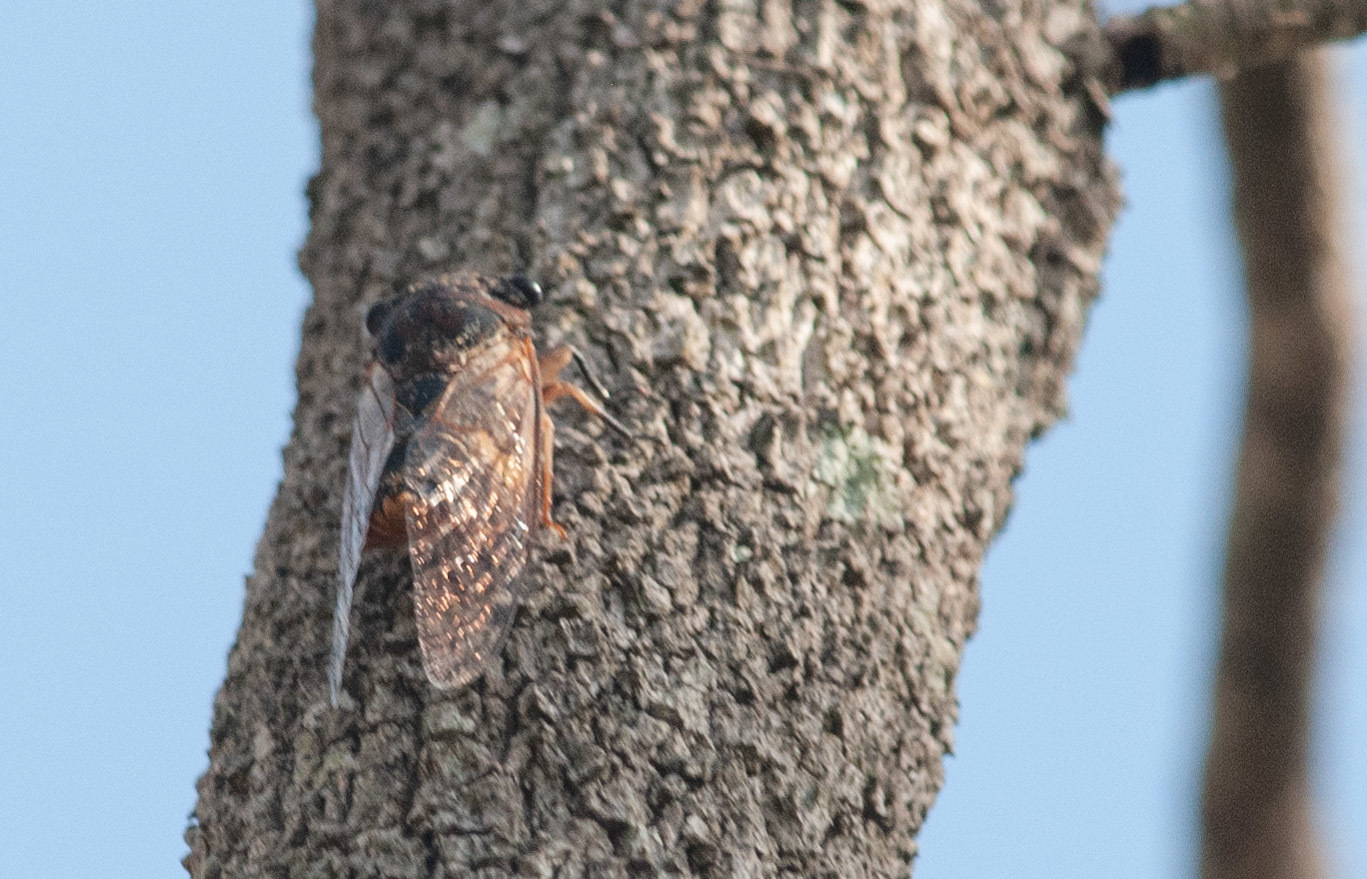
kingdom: Animalia
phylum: Arthropoda
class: Insecta
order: Hemiptera
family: Cicadidae
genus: Psaltoda
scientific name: Psaltoda harrisii
